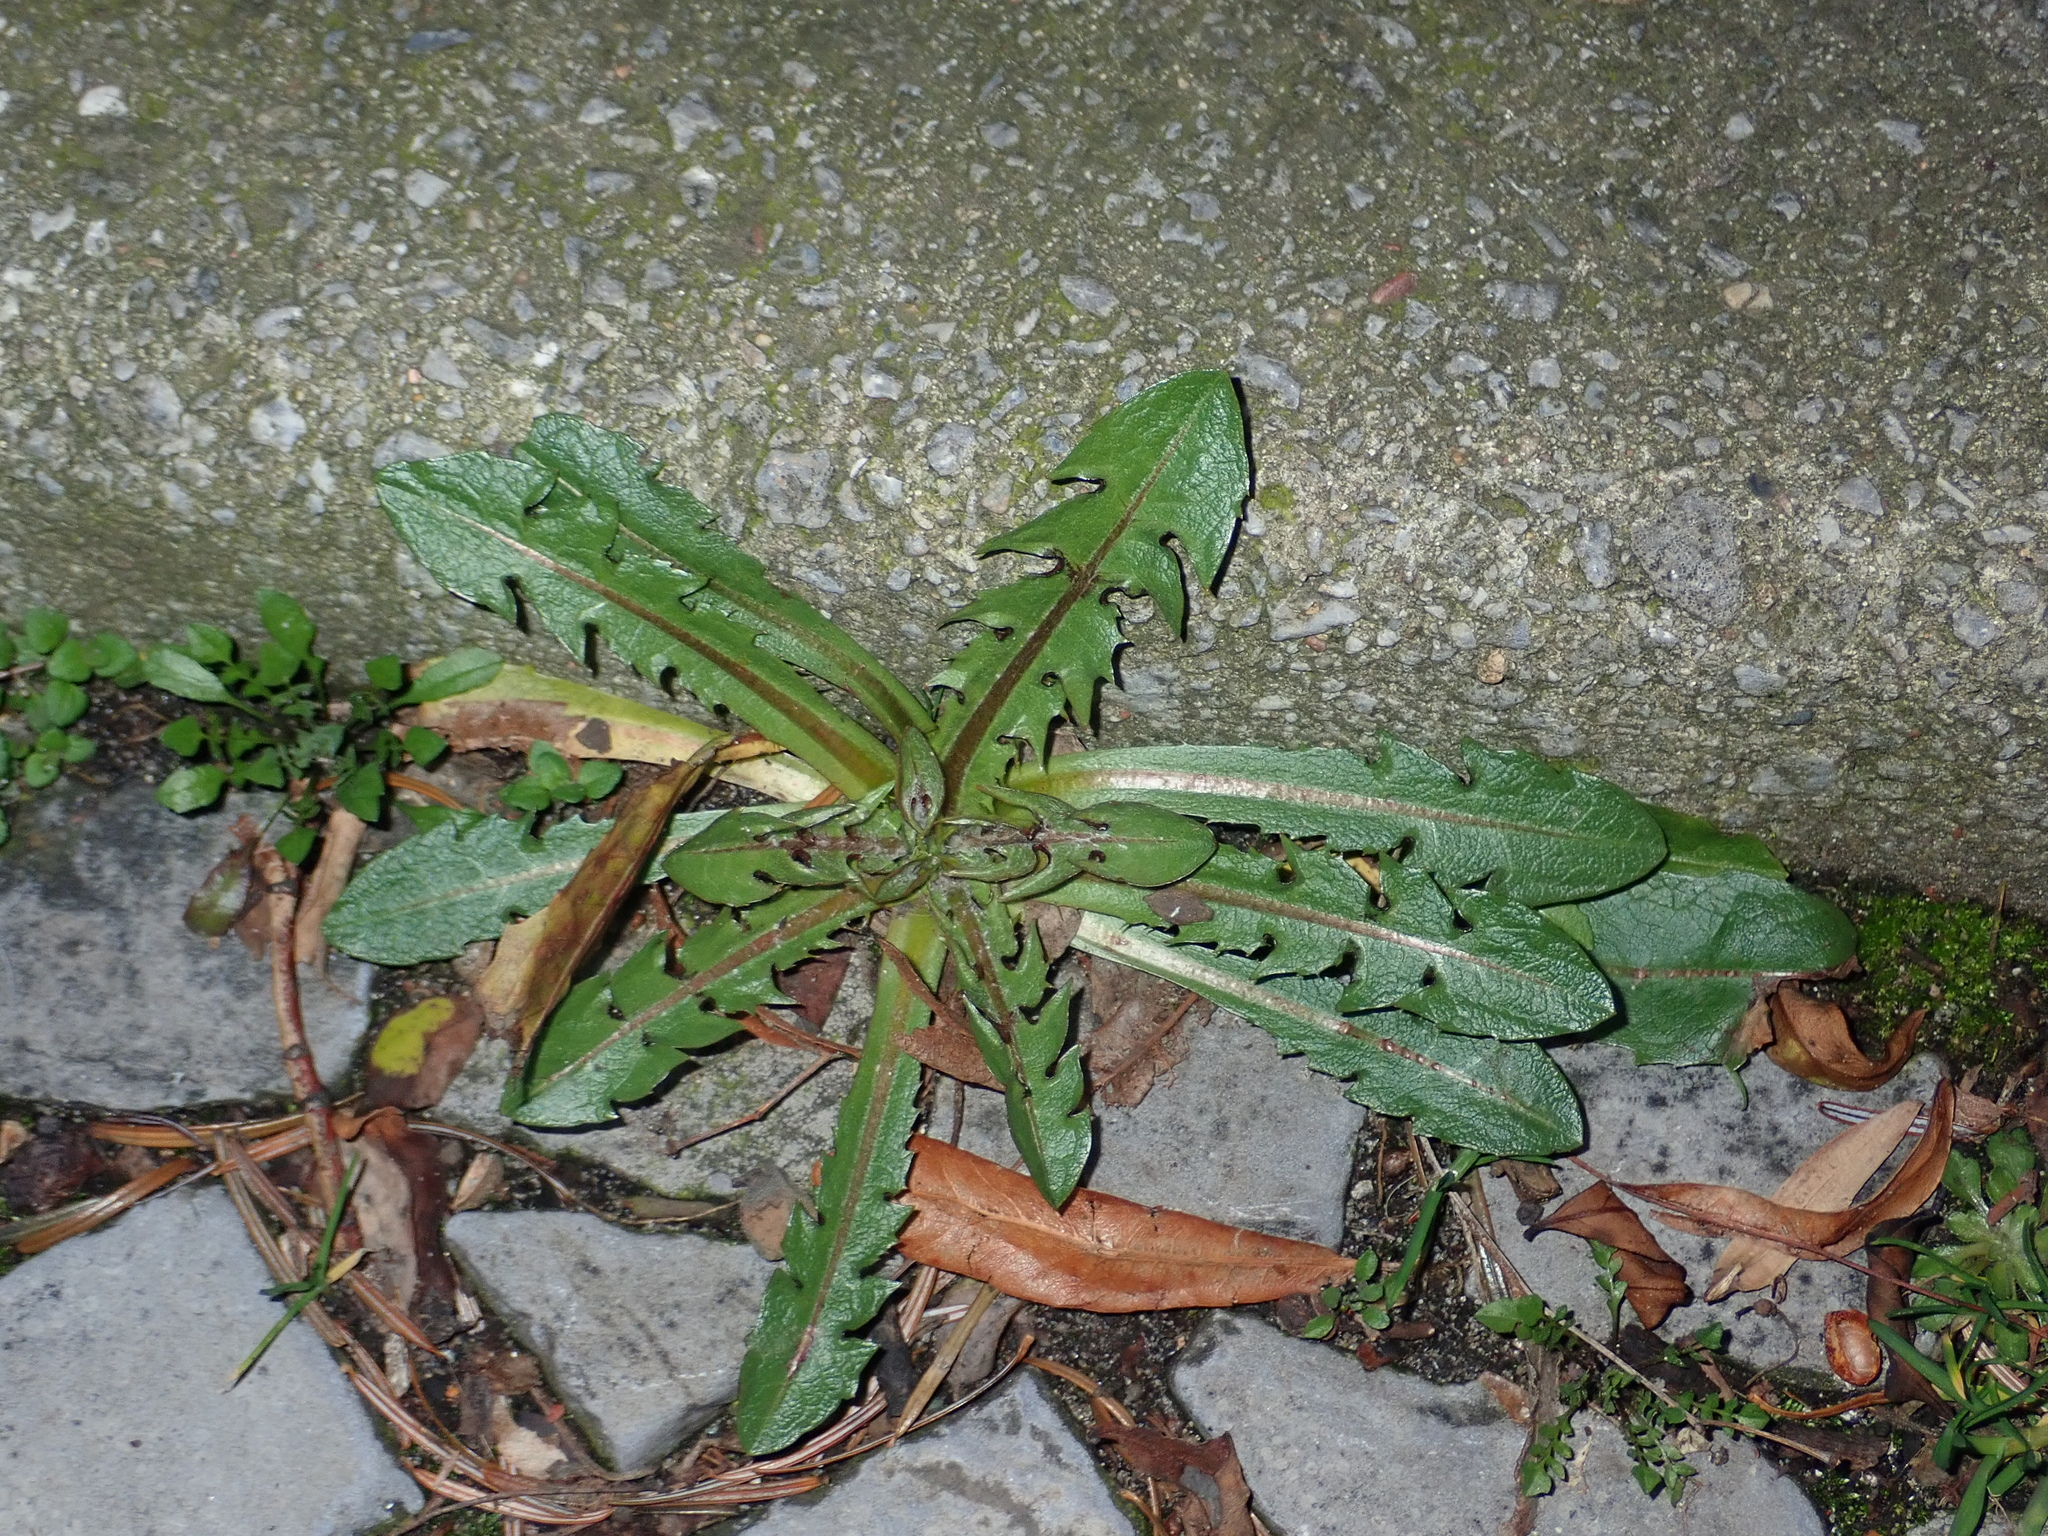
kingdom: Plantae
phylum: Tracheophyta
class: Magnoliopsida
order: Asterales
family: Asteraceae
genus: Taraxacum
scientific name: Taraxacum officinale
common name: Common dandelion
